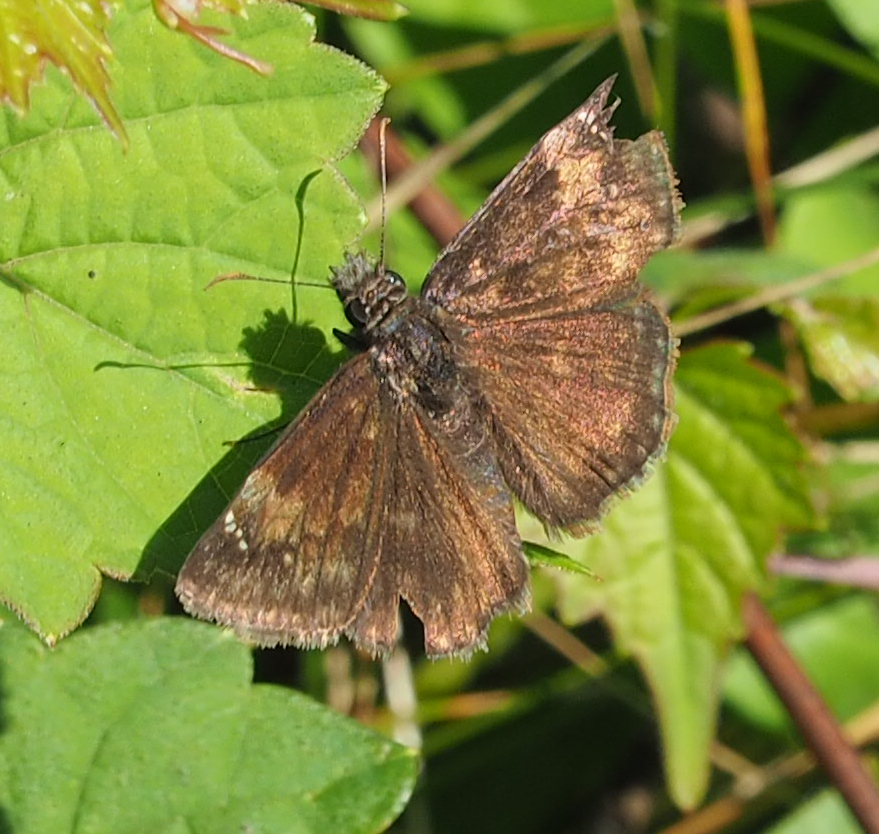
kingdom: Animalia
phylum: Arthropoda
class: Insecta
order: Lepidoptera
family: Hesperiidae
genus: Erynnis
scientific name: Erynnis baptisiae
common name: Wild indigo duskywing
